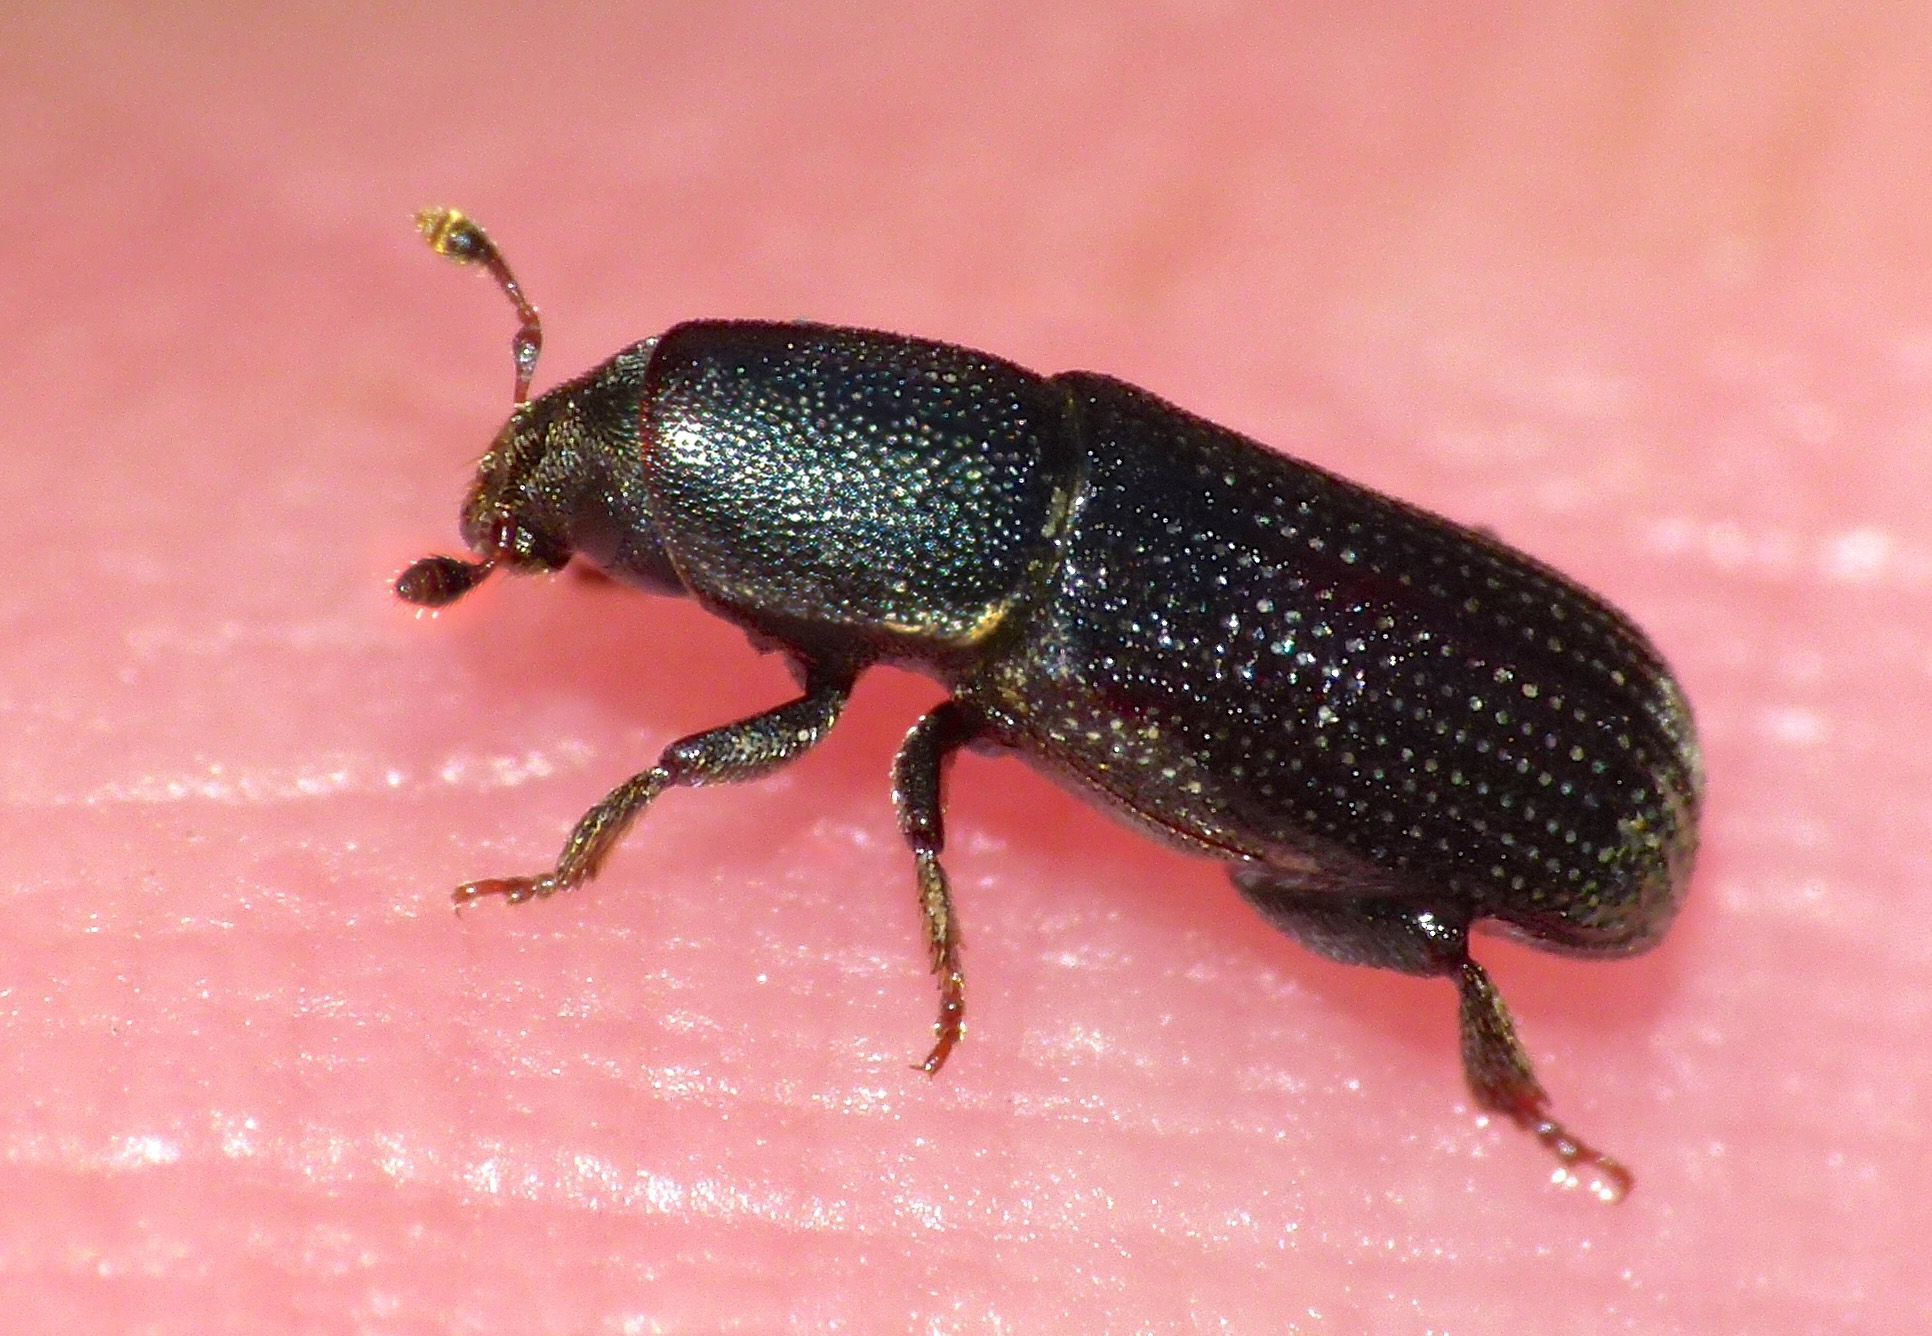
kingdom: Animalia
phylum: Arthropoda
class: Insecta
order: Coleoptera
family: Curculionidae
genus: Hylastes
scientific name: Hylastes ater
